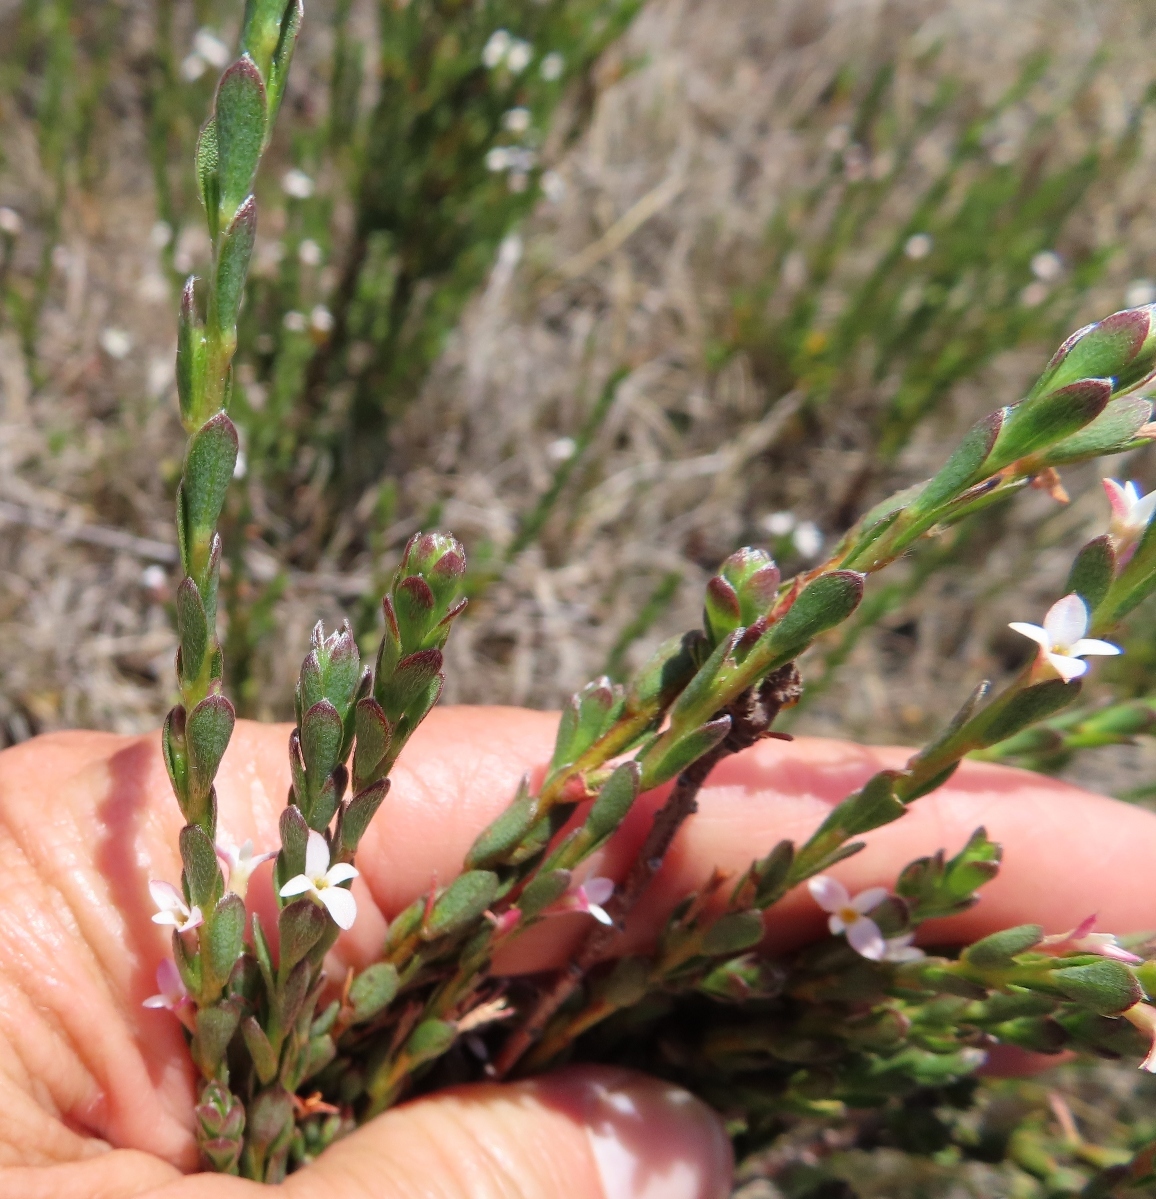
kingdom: Plantae
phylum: Tracheophyta
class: Magnoliopsida
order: Malvales
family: Thymelaeaceae
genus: Gnidia
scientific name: Gnidia spicata
